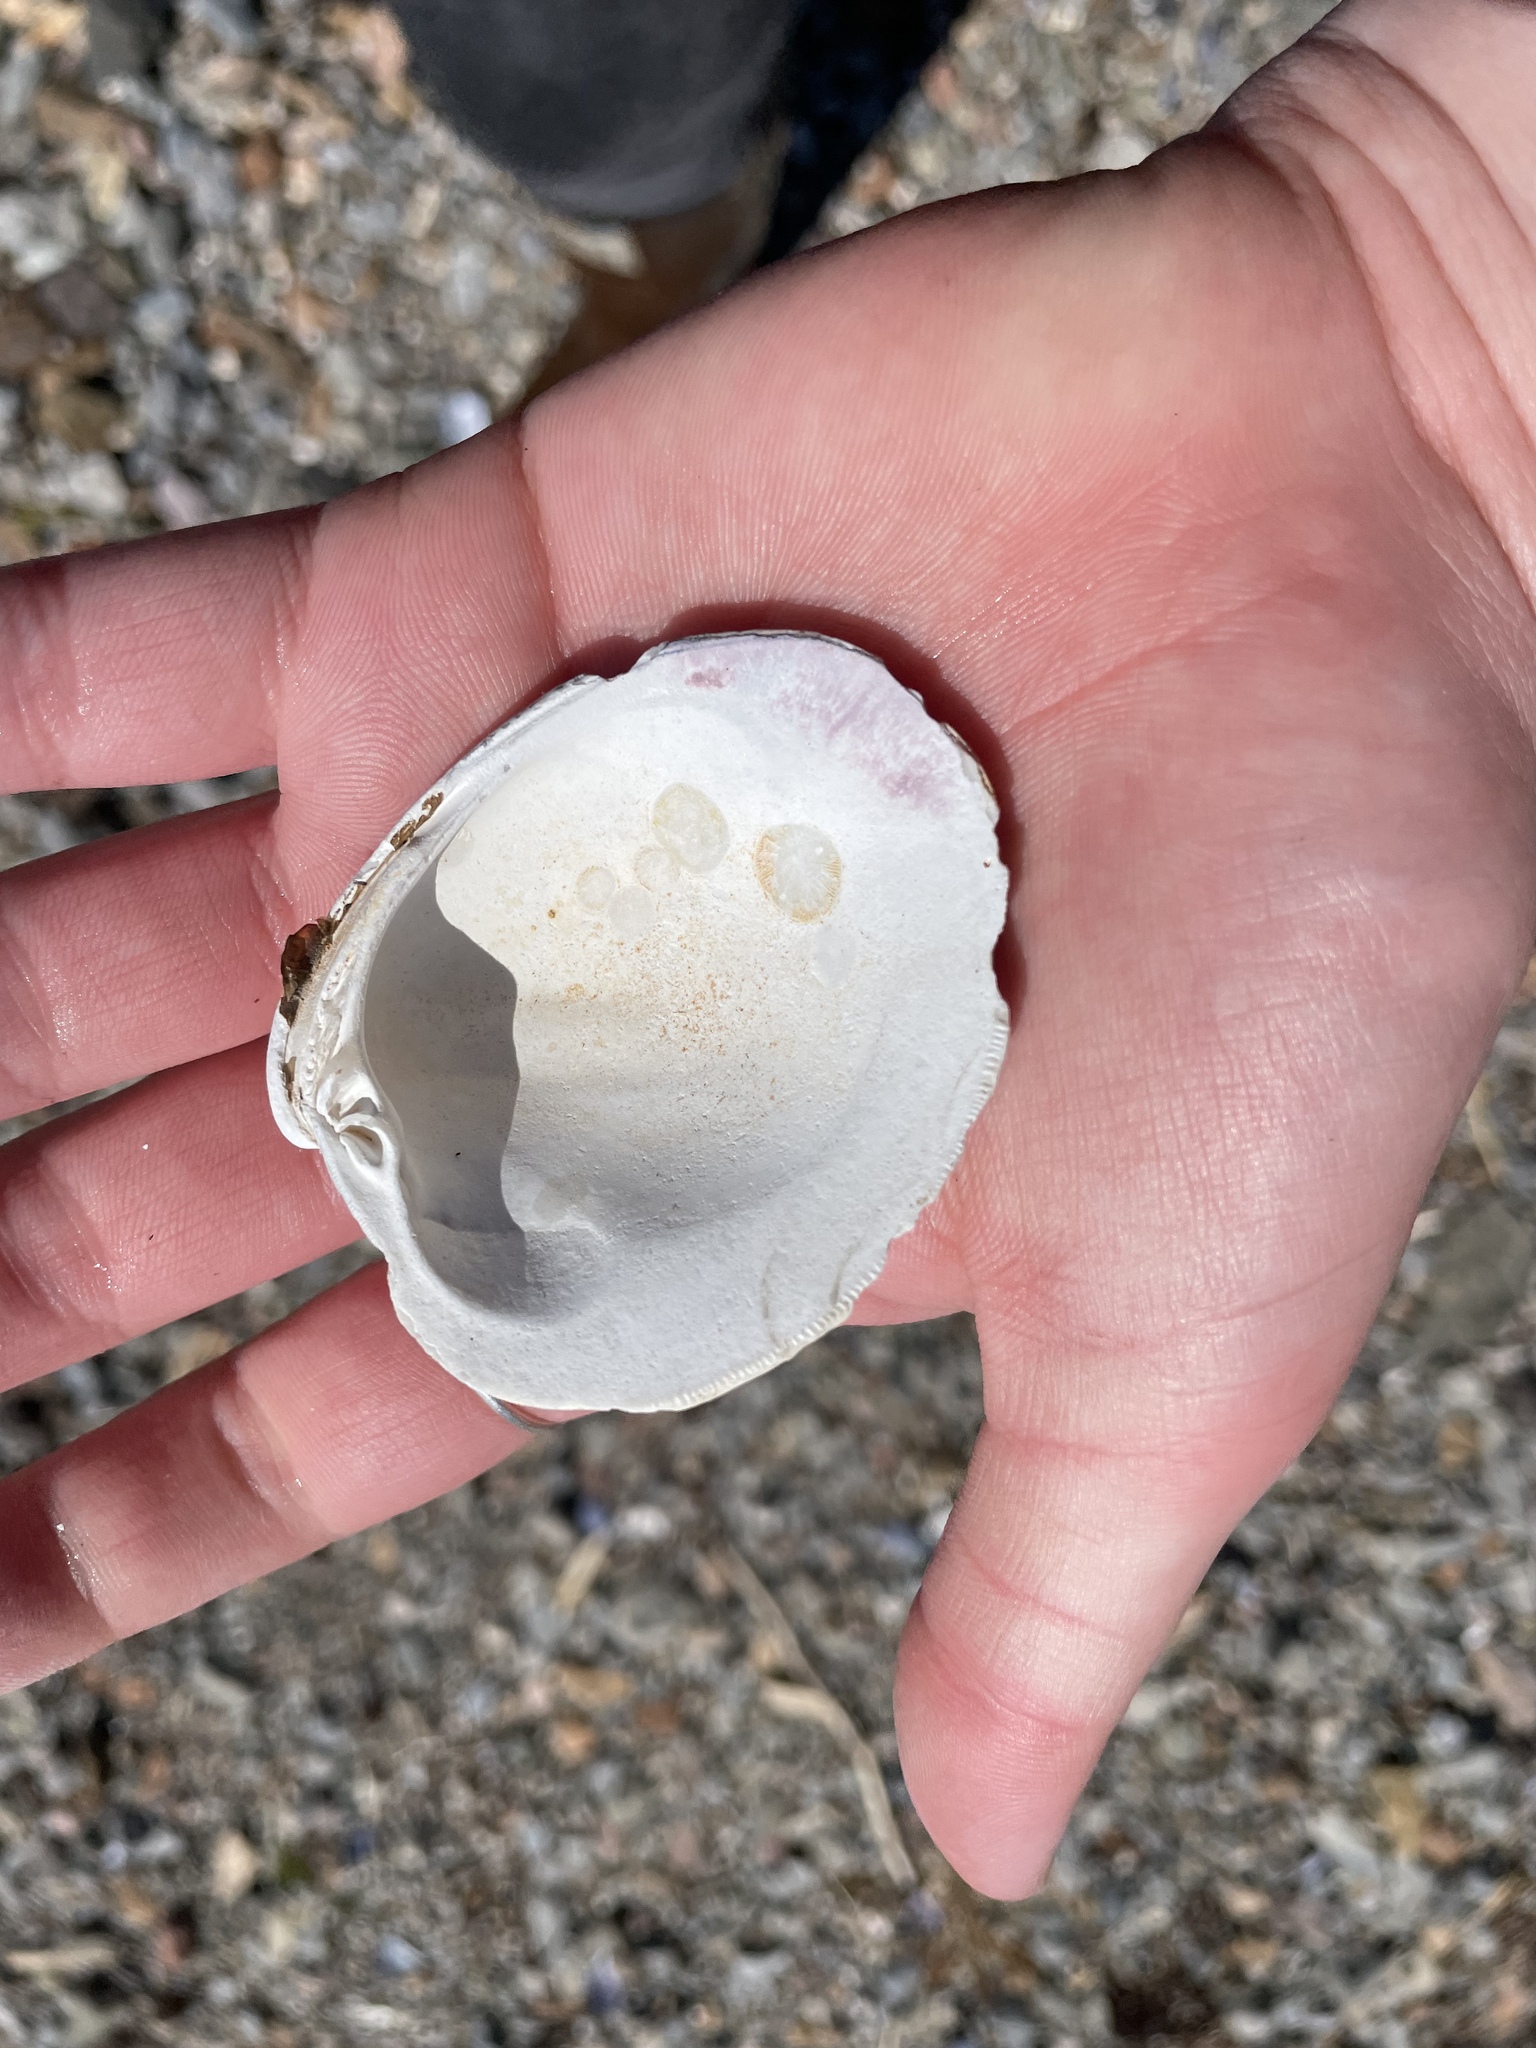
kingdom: Animalia
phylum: Mollusca
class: Bivalvia
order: Venerida
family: Veneridae
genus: Mercenaria
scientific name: Mercenaria mercenaria
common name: American hard-shelled clam
